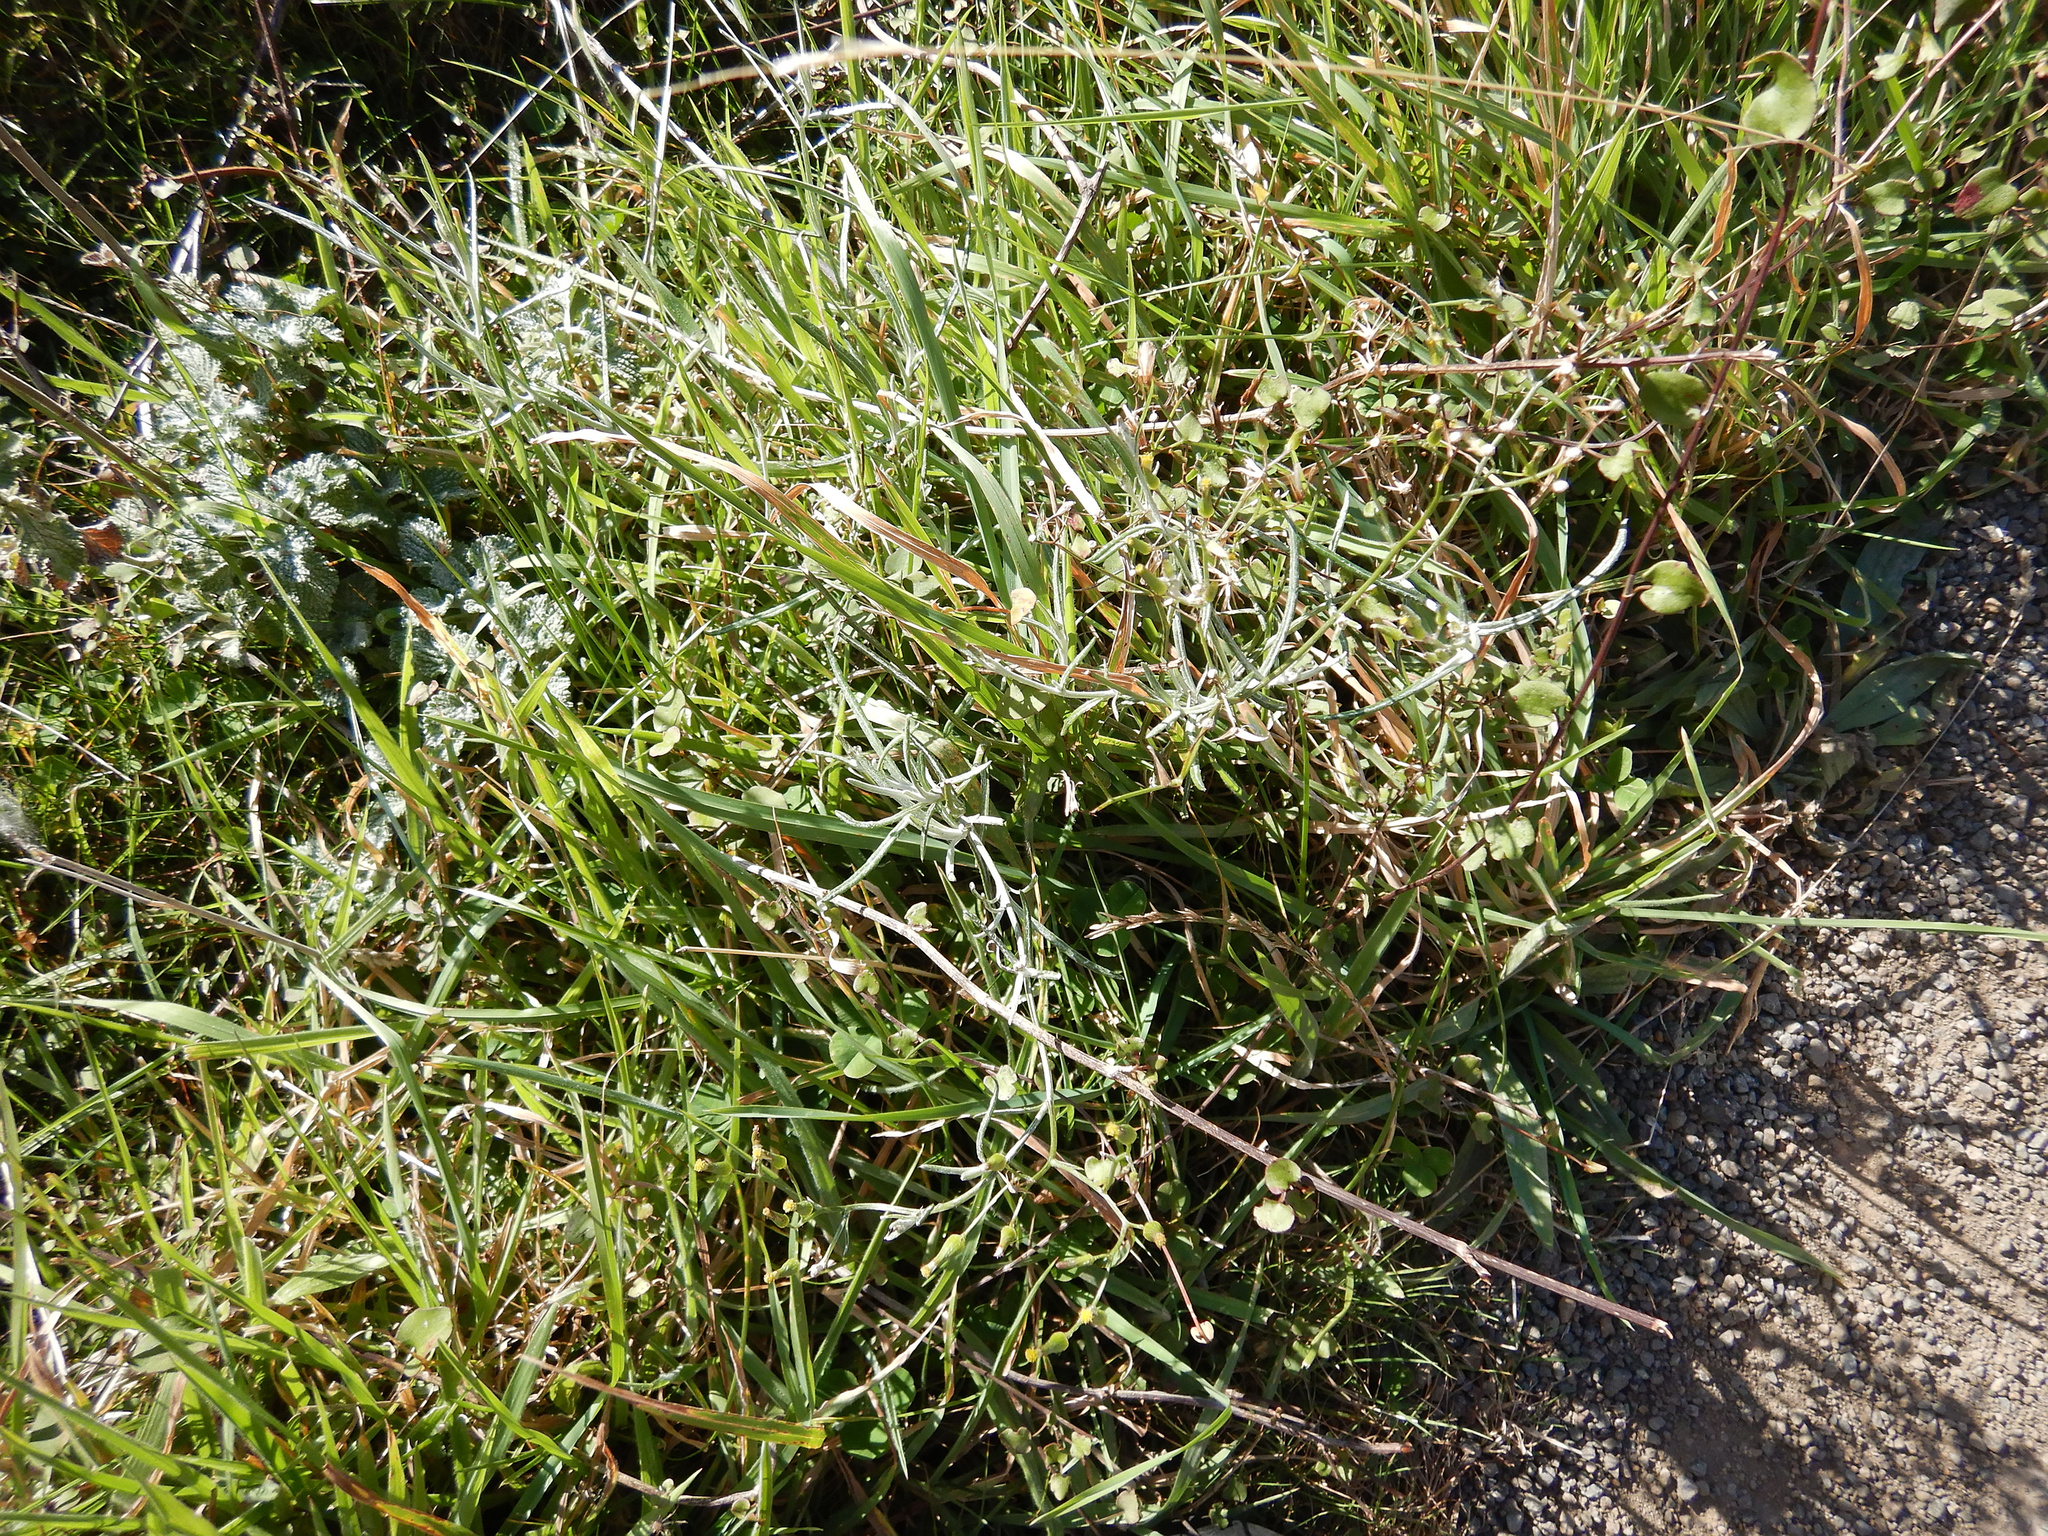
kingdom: Plantae
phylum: Tracheophyta
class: Magnoliopsida
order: Asterales
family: Asteraceae
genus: Senecio
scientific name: Senecio quadridentatus
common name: Cotton fireweed
